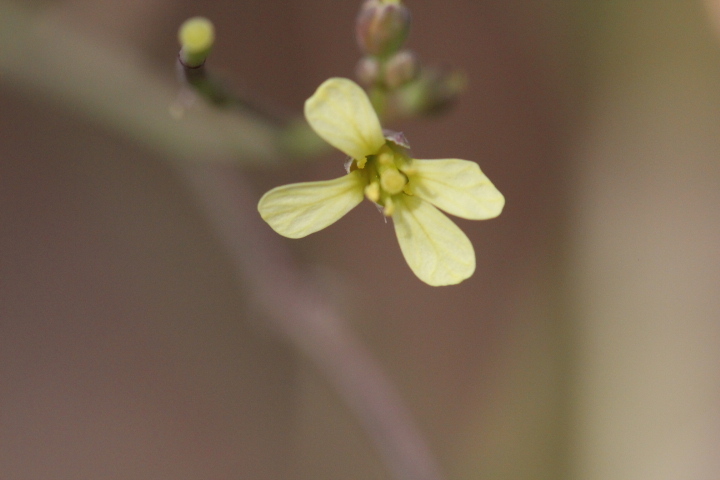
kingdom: Plantae
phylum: Tracheophyta
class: Magnoliopsida
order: Brassicales
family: Brassicaceae
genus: Brassica
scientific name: Brassica tournefortii
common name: Pale cabbage
